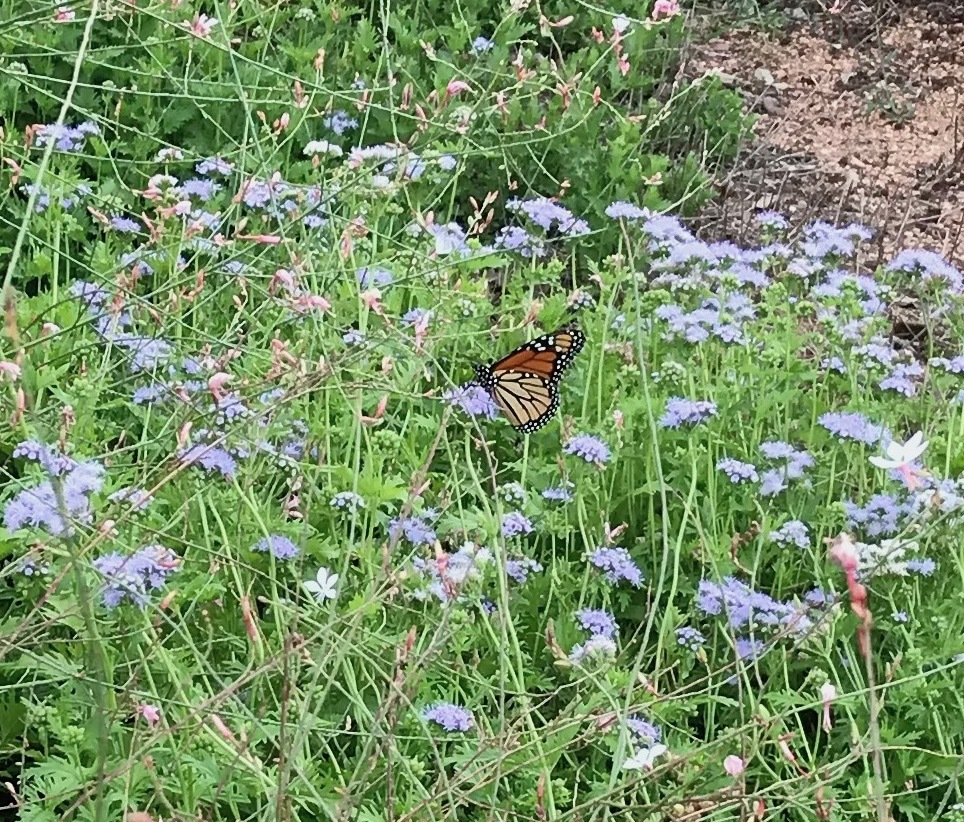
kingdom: Animalia
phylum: Arthropoda
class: Insecta
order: Lepidoptera
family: Nymphalidae
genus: Danaus
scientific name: Danaus plexippus
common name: Monarch
